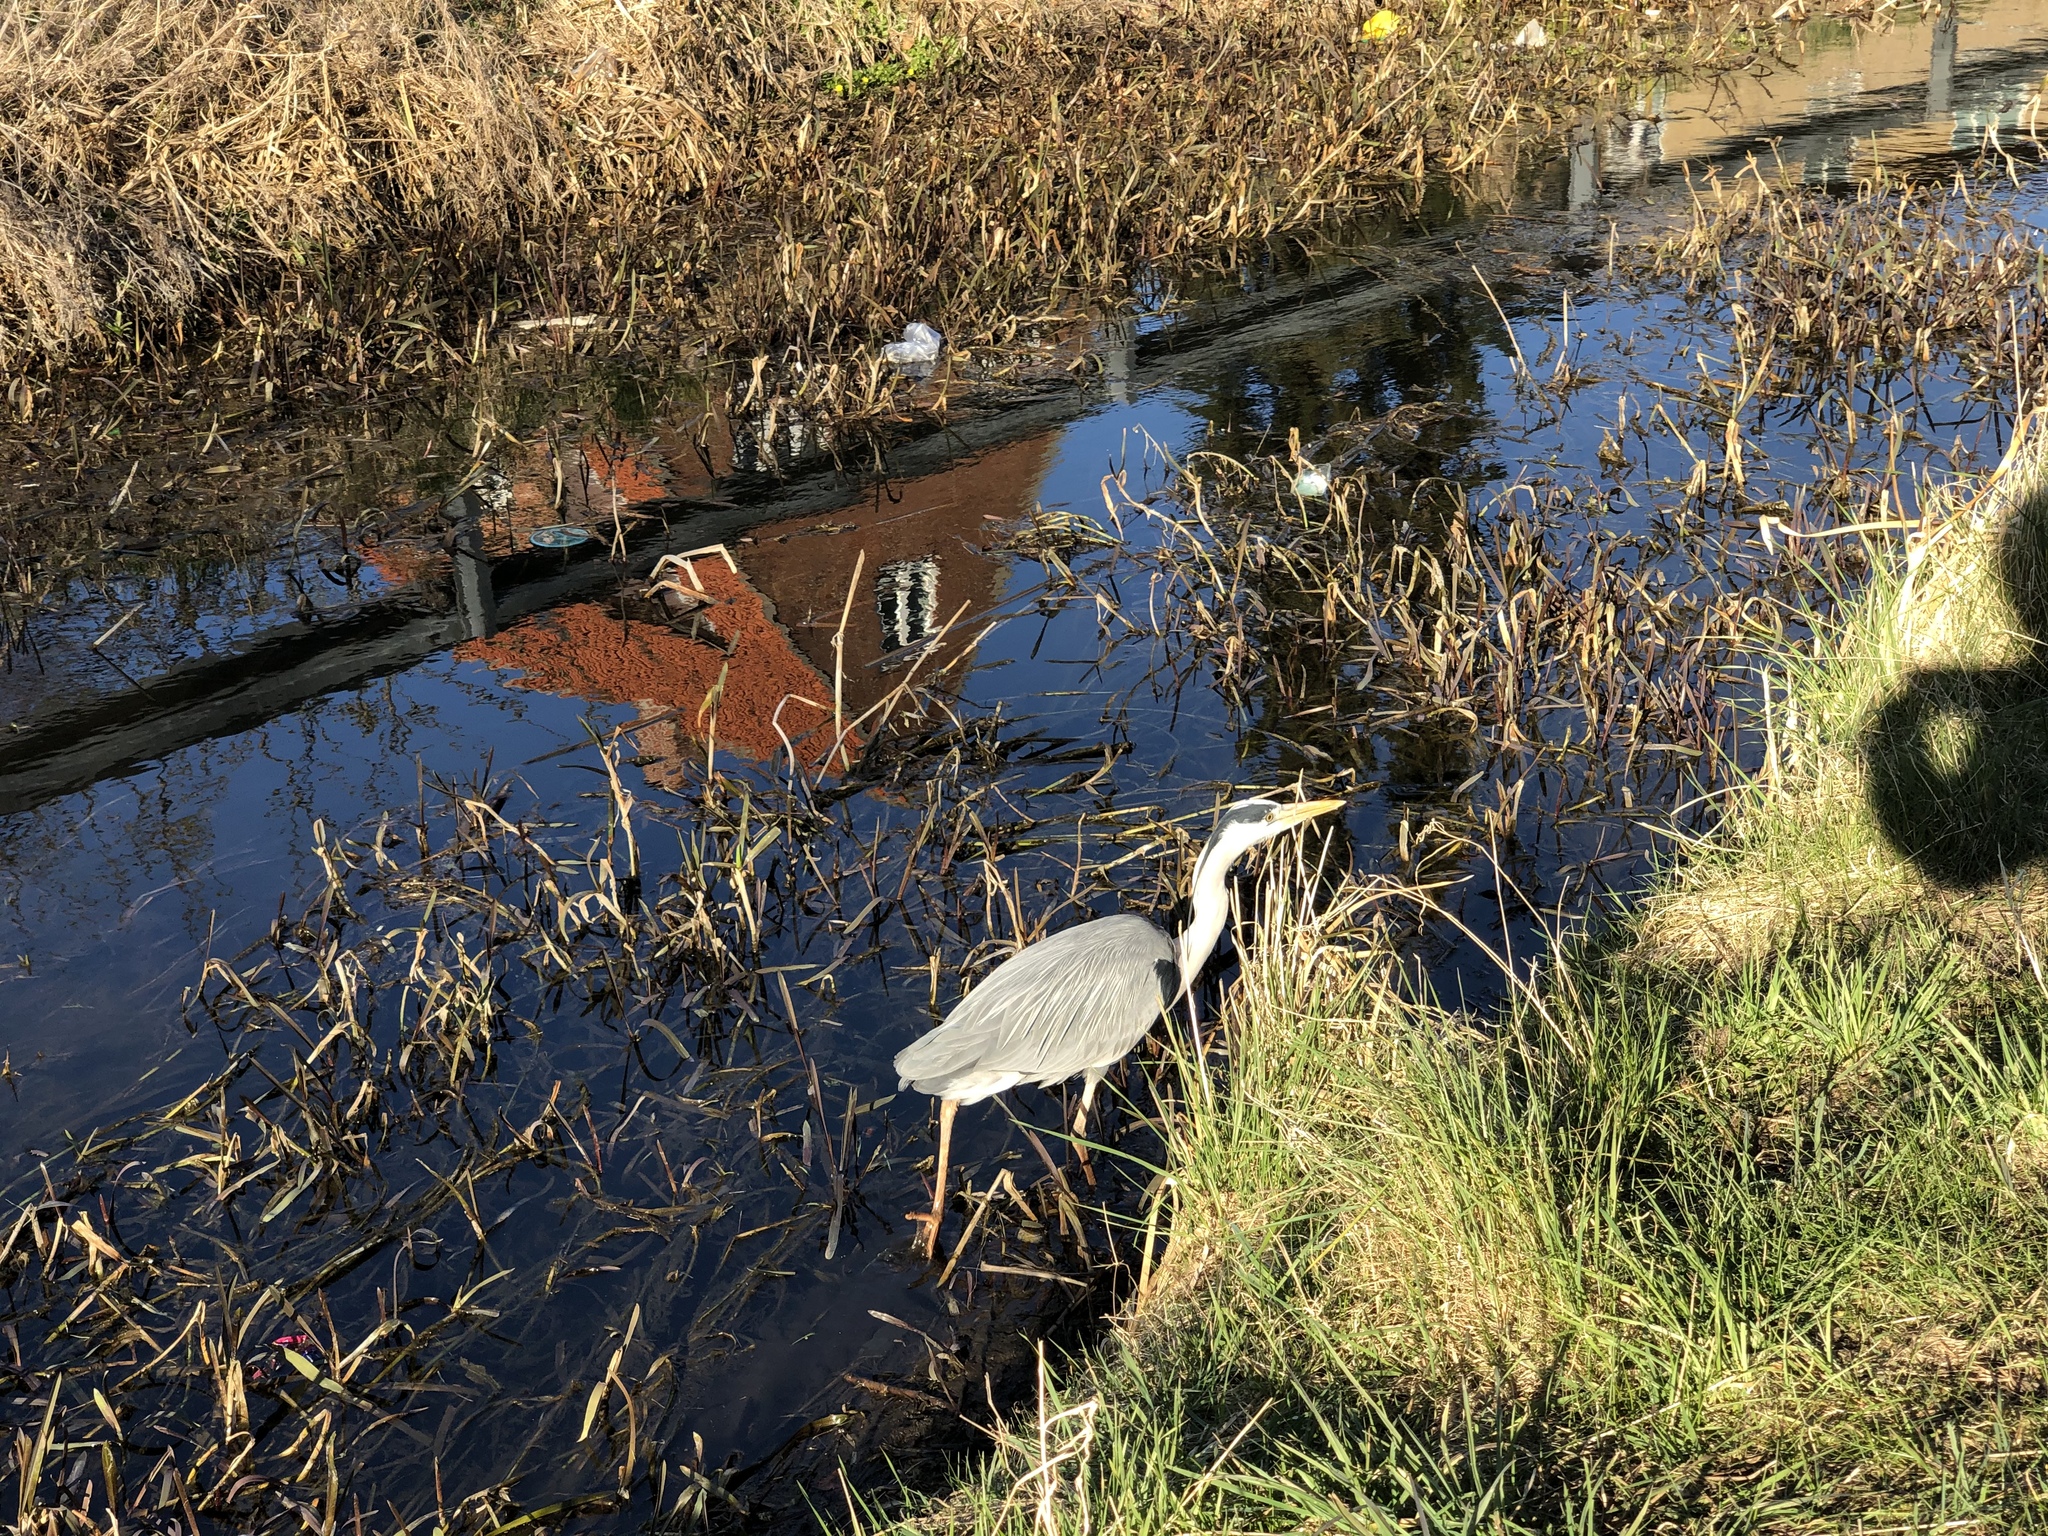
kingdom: Animalia
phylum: Chordata
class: Aves
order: Pelecaniformes
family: Ardeidae
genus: Ardea
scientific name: Ardea cinerea
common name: Grey heron
